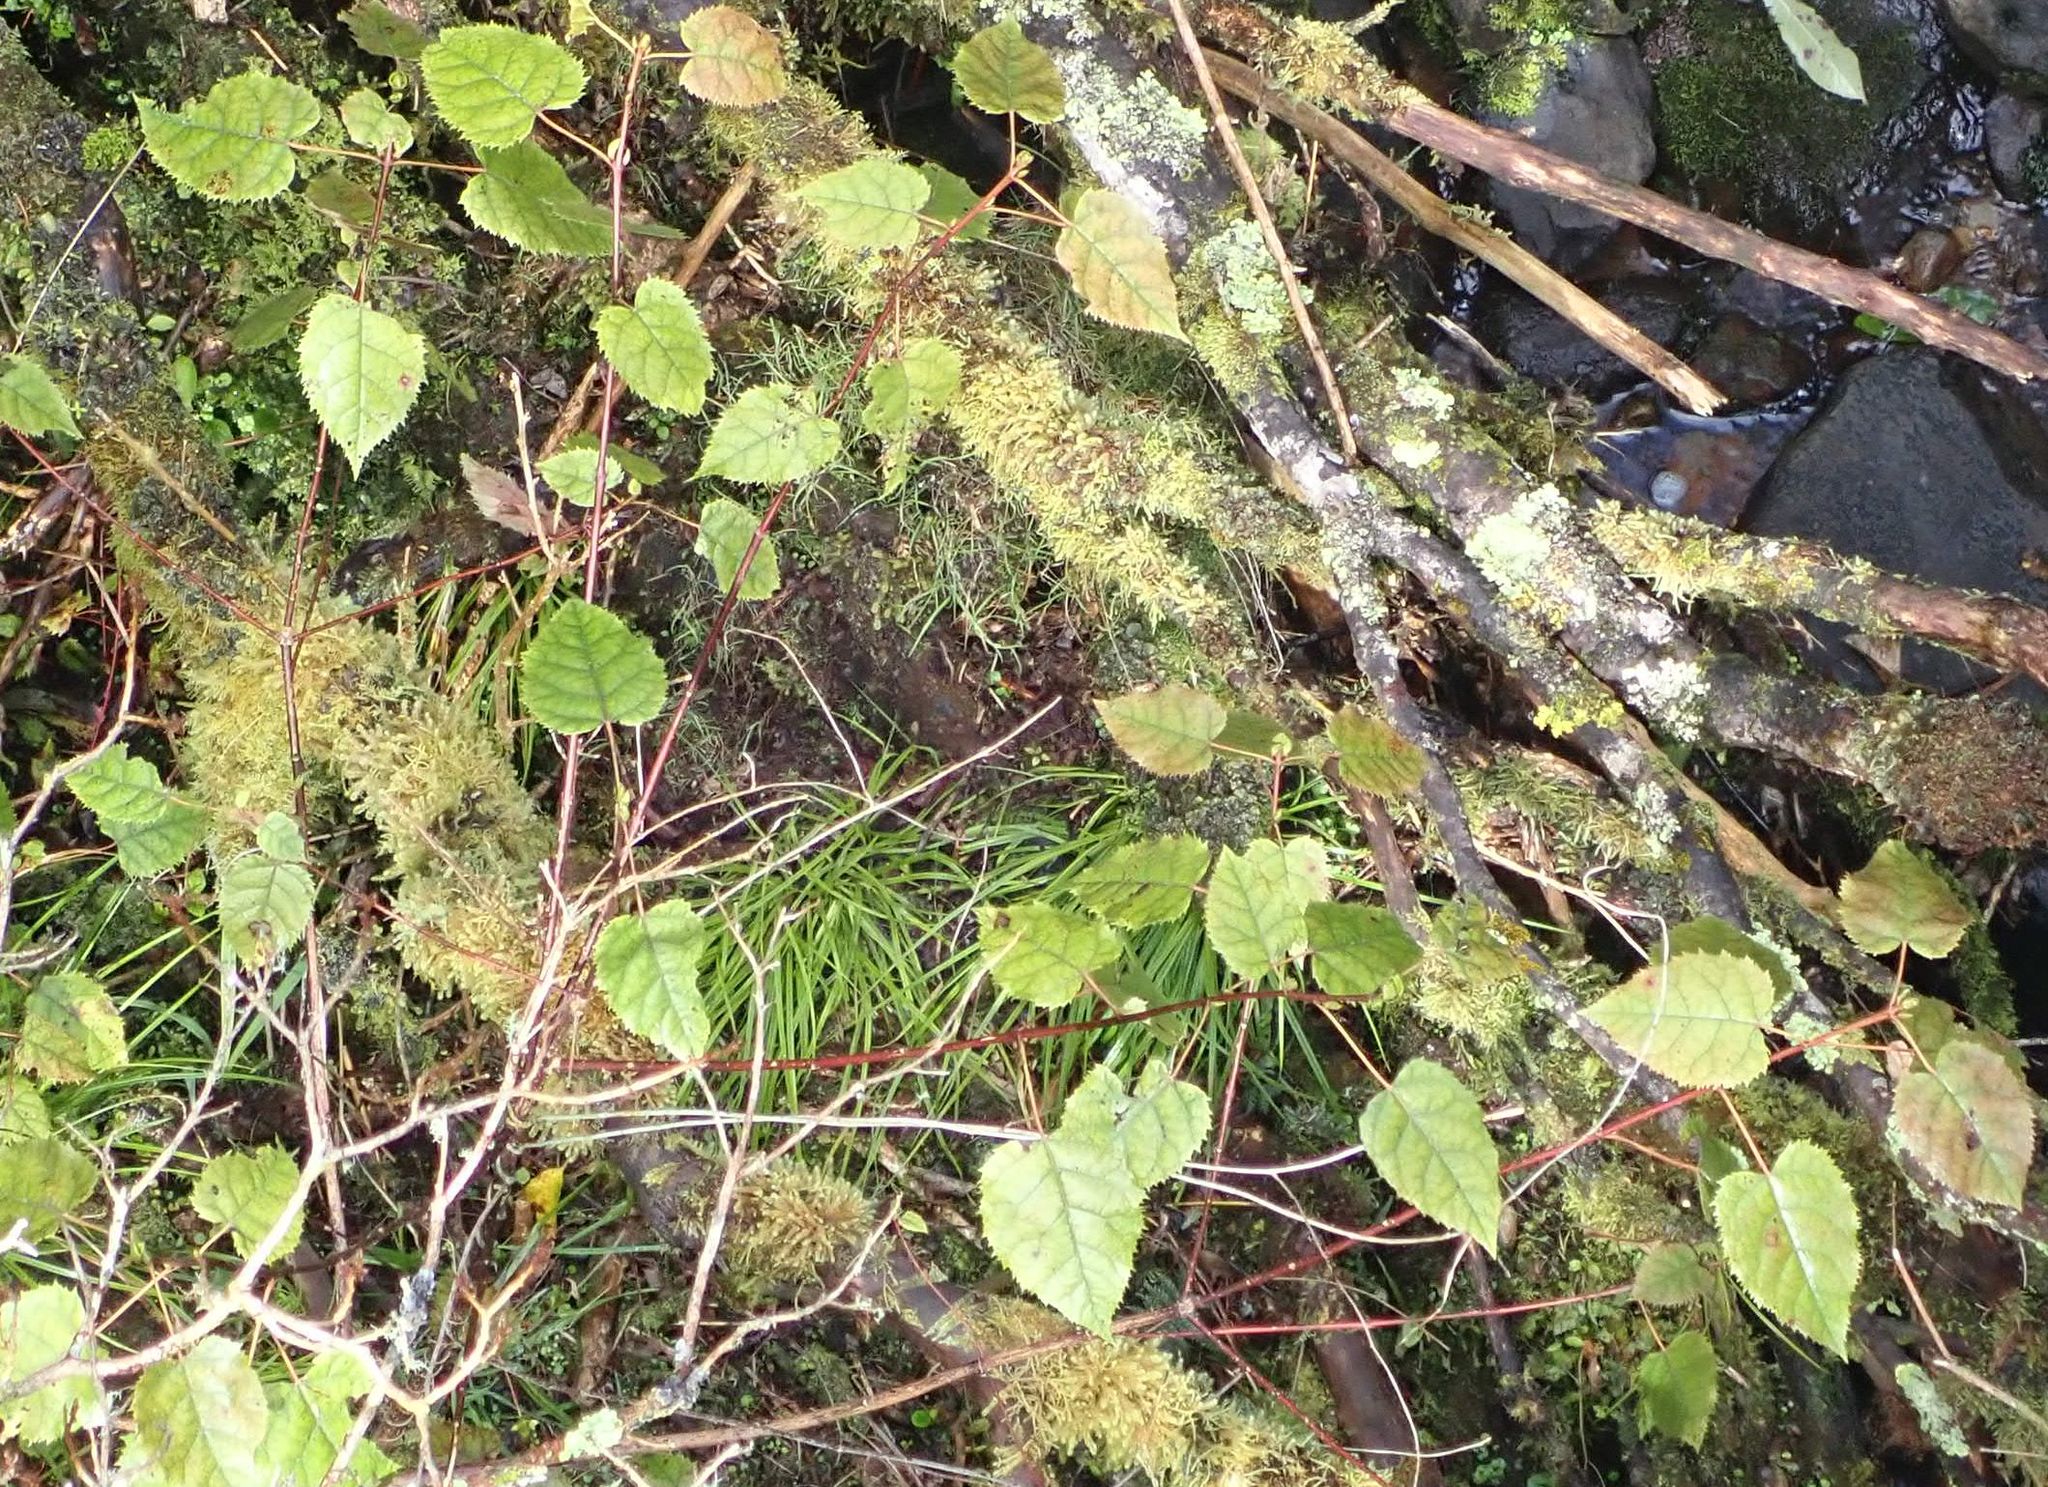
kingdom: Plantae
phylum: Tracheophyta
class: Magnoliopsida
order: Oxalidales
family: Elaeocarpaceae
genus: Aristotelia
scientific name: Aristotelia serrata
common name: New zealand wineberry
